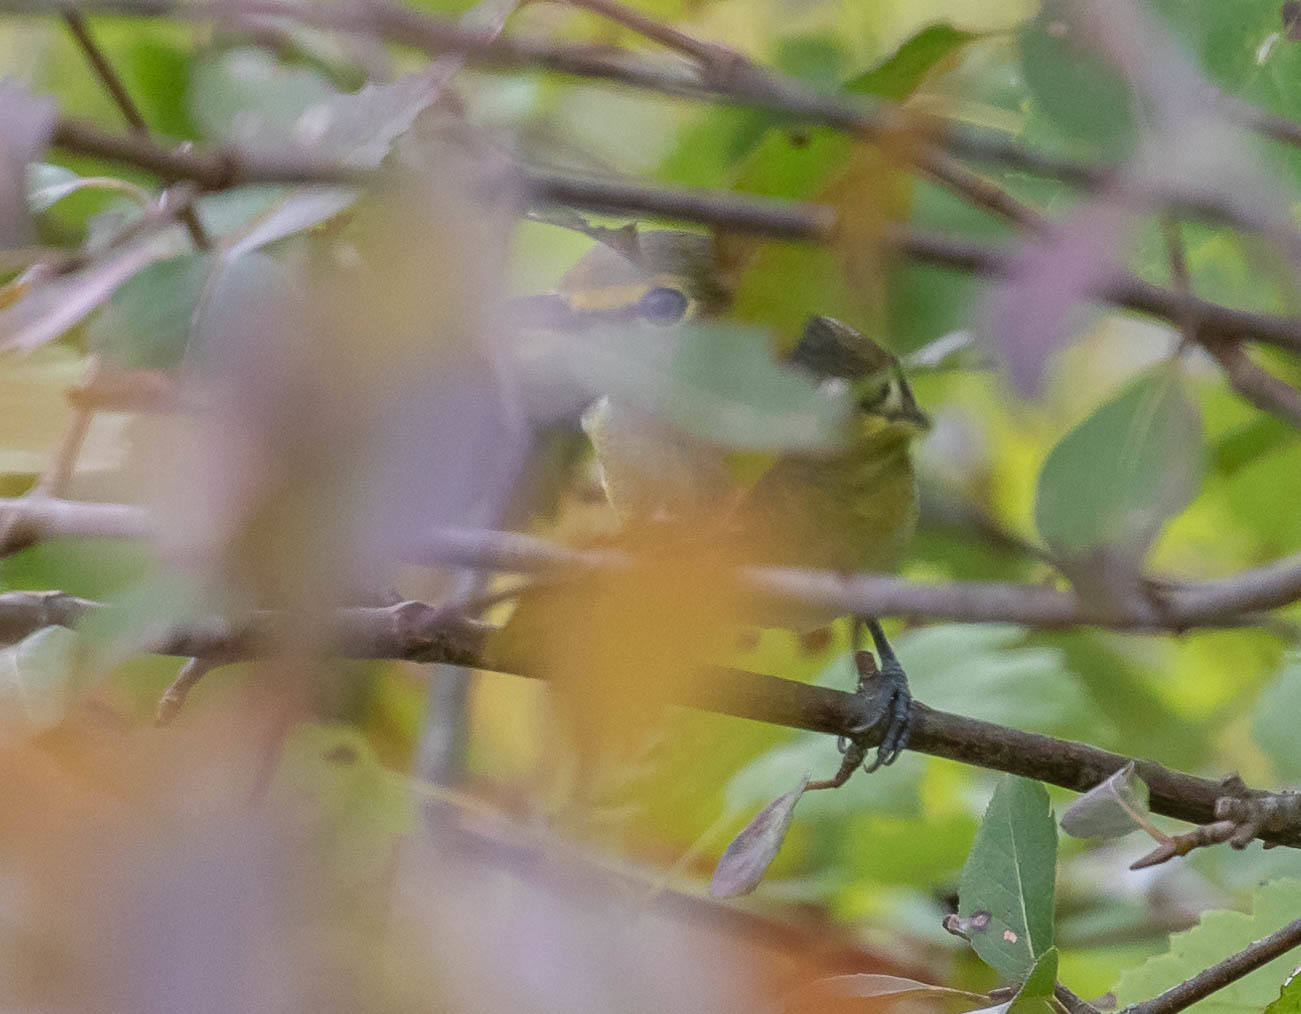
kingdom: Animalia
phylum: Chordata
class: Aves
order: Passeriformes
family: Vireonidae
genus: Vireo
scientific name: Vireo griseus
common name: White-eyed vireo
